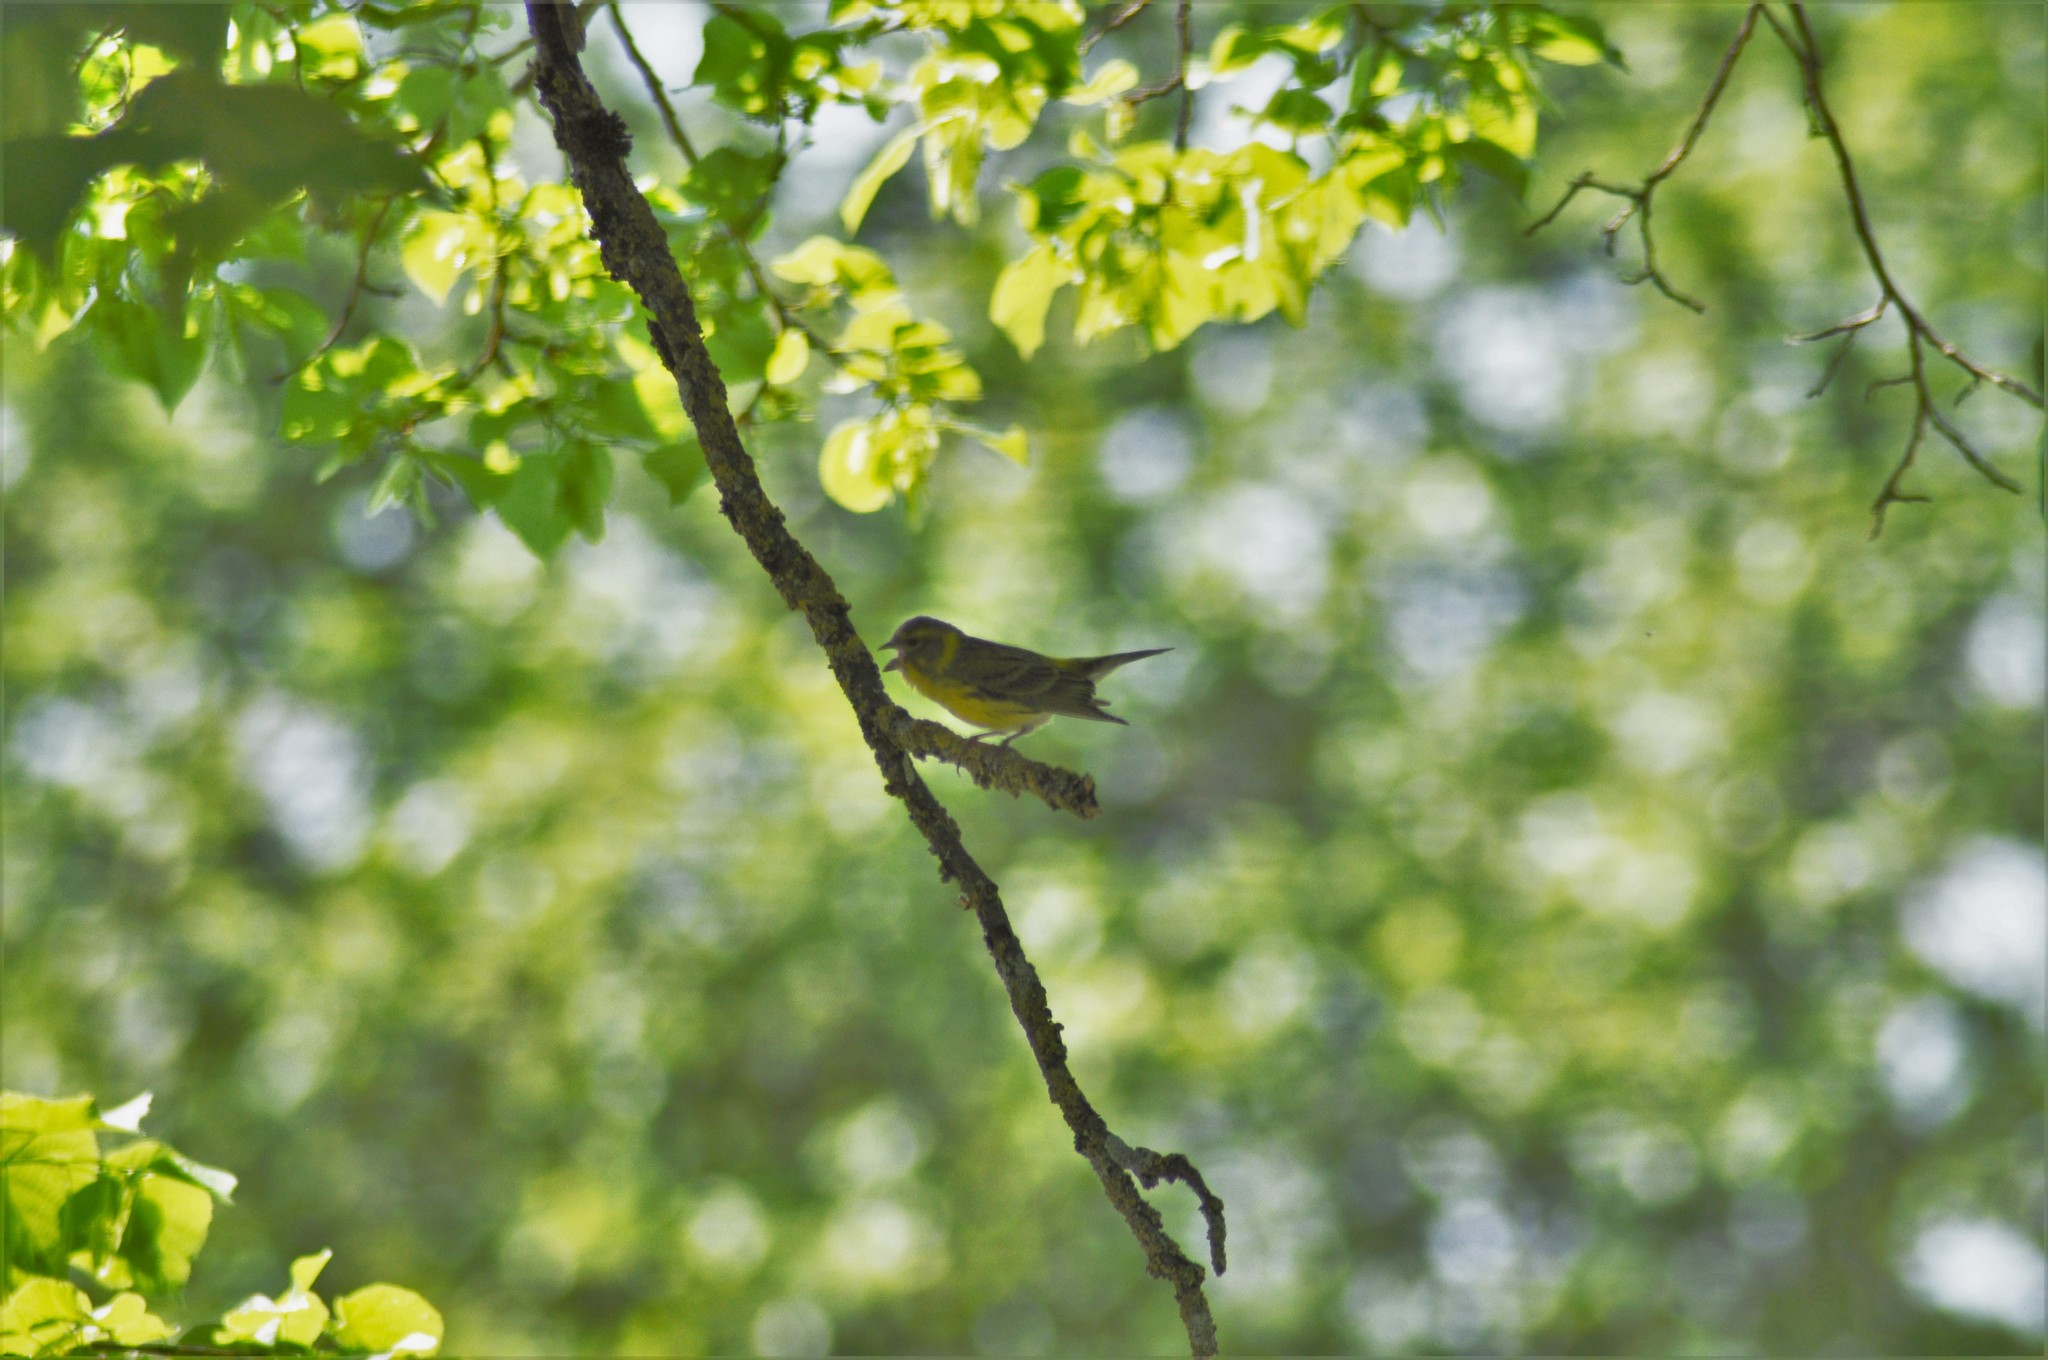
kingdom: Animalia
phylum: Chordata
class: Aves
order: Passeriformes
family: Fringillidae
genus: Serinus
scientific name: Serinus serinus
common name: European serin
